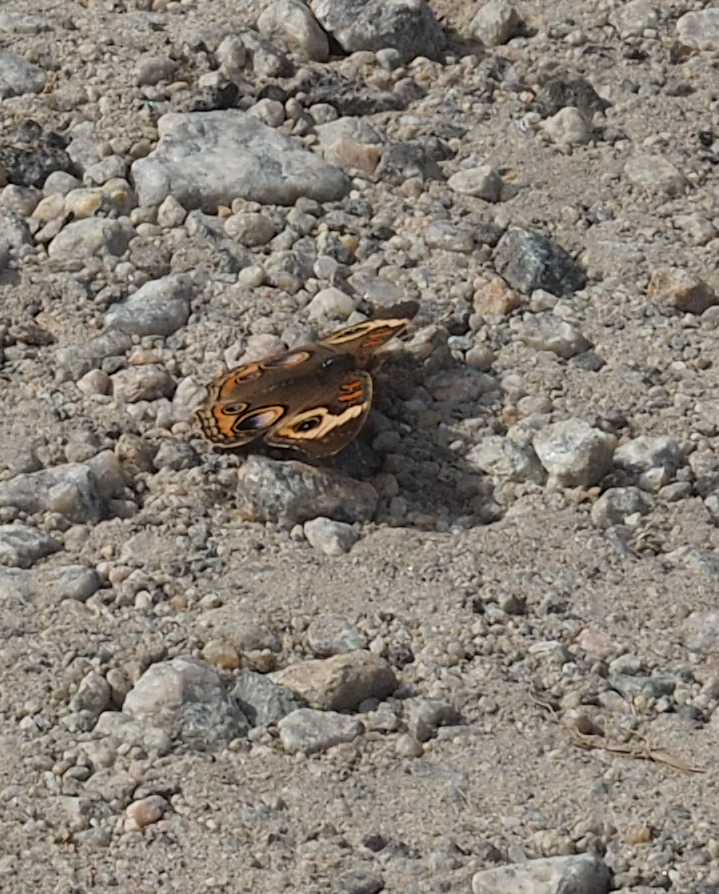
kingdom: Animalia
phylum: Arthropoda
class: Insecta
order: Lepidoptera
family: Nymphalidae
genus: Junonia
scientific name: Junonia coenia
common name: Common buckeye
